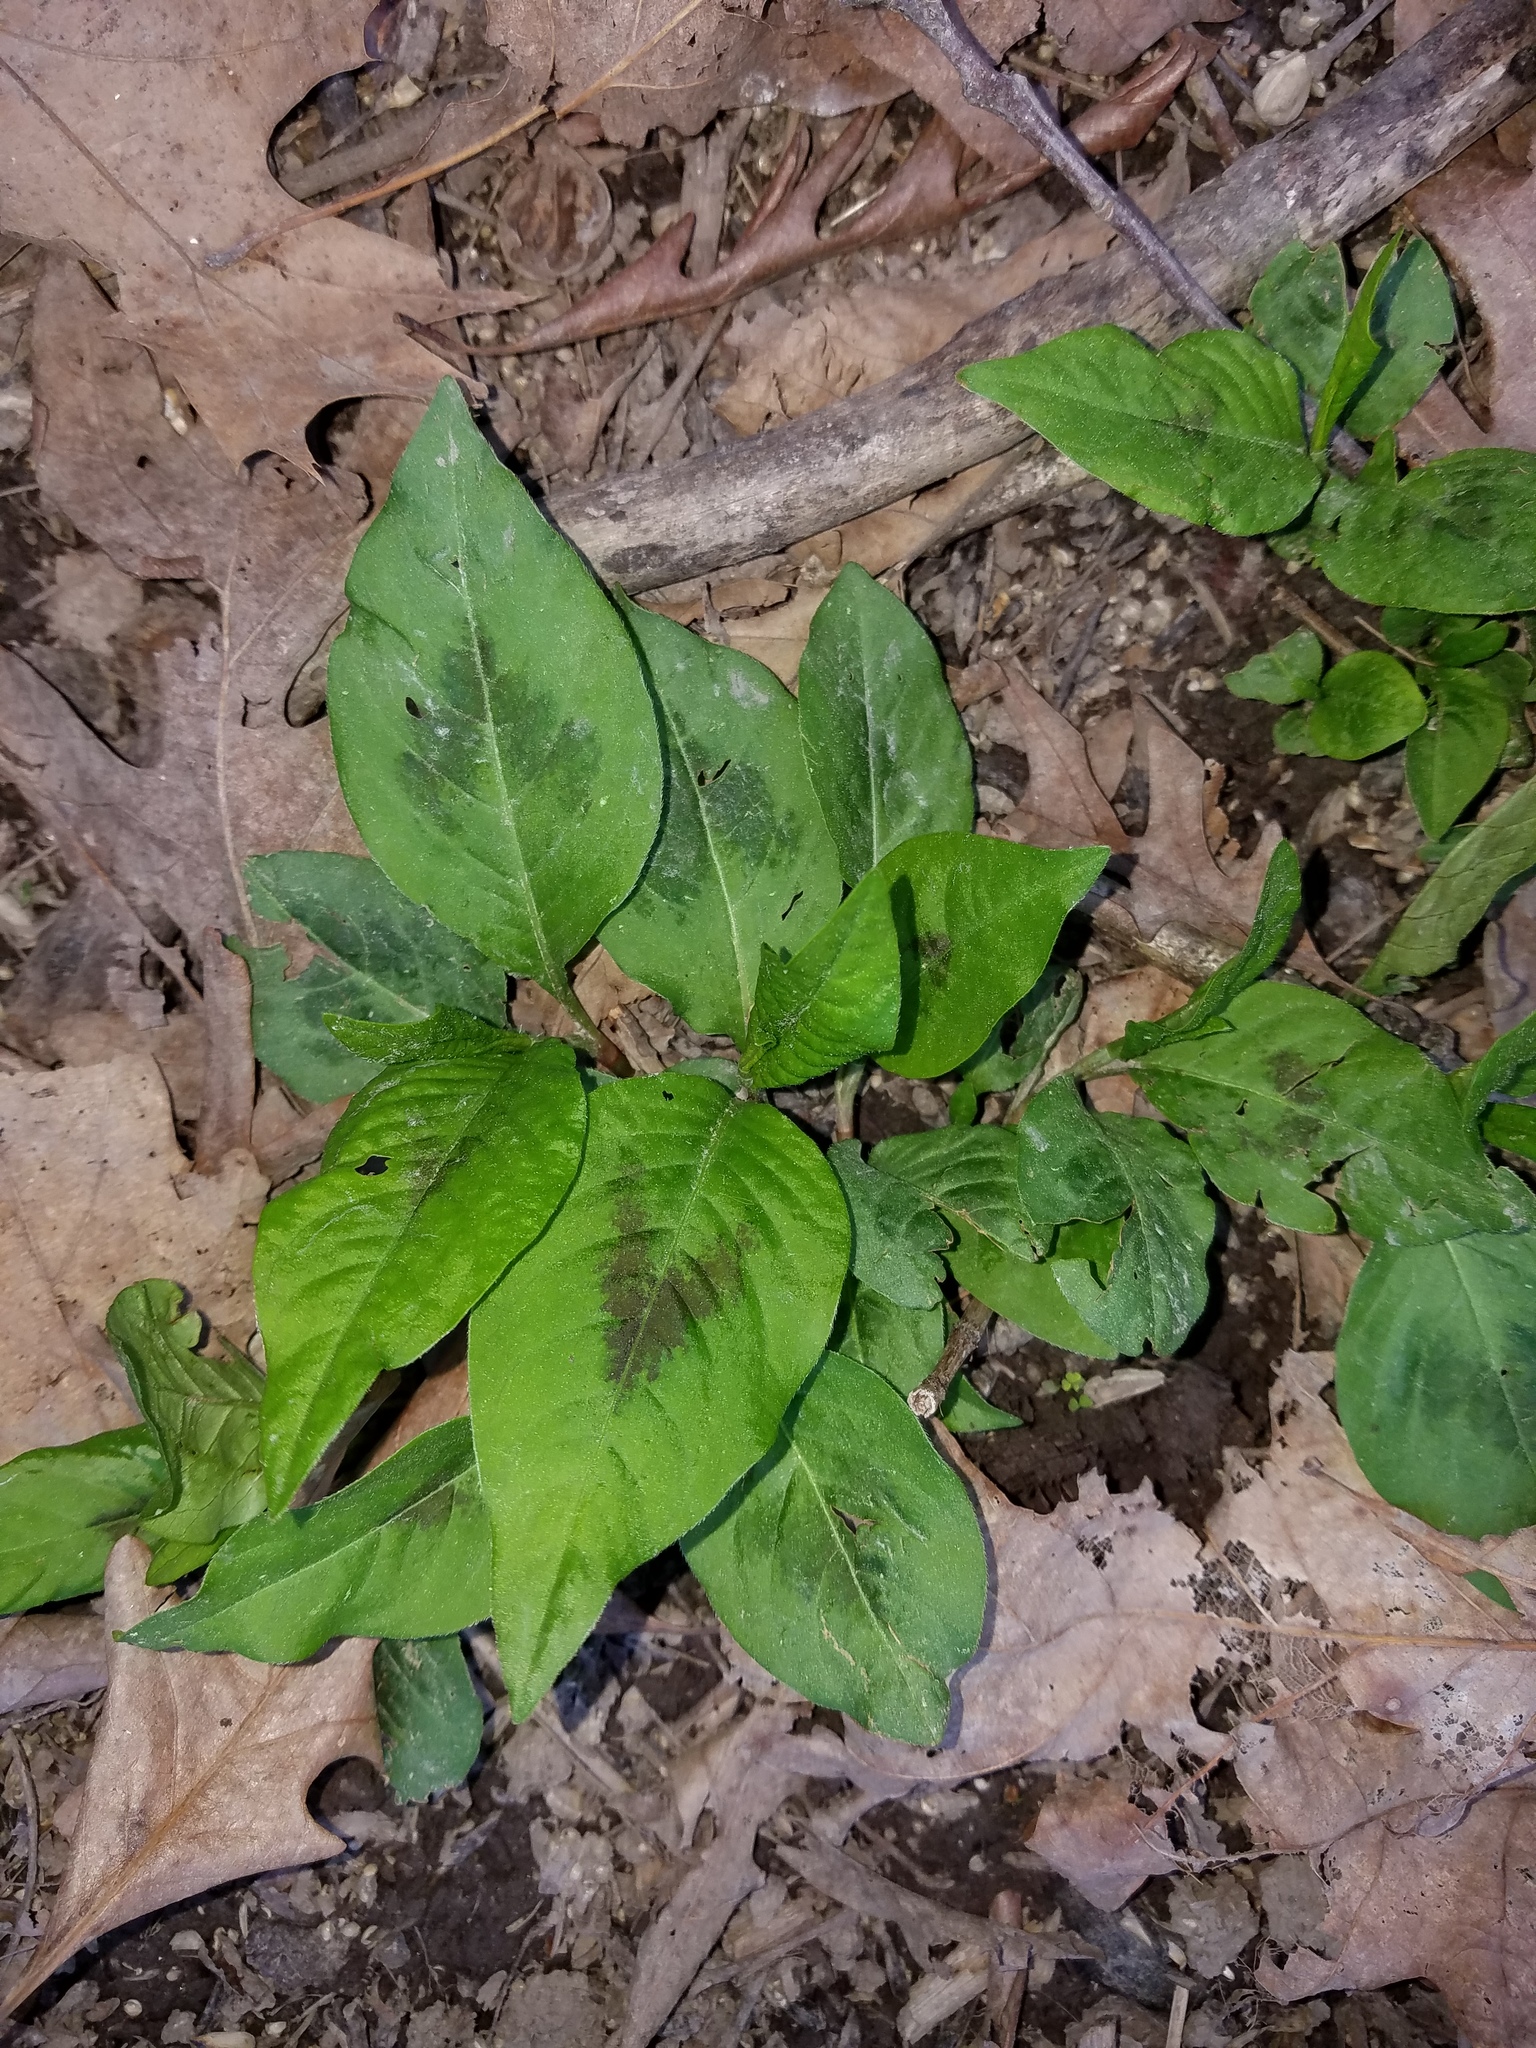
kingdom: Plantae
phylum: Tracheophyta
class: Magnoliopsida
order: Caryophyllales
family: Polygonaceae
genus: Persicaria
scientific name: Persicaria virginiana
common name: Jumpseed
